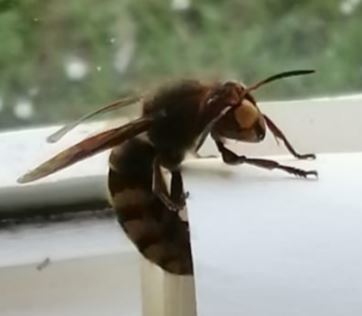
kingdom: Animalia
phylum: Arthropoda
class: Insecta
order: Hymenoptera
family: Vespidae
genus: Vespa
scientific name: Vespa crabro
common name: Hornet
